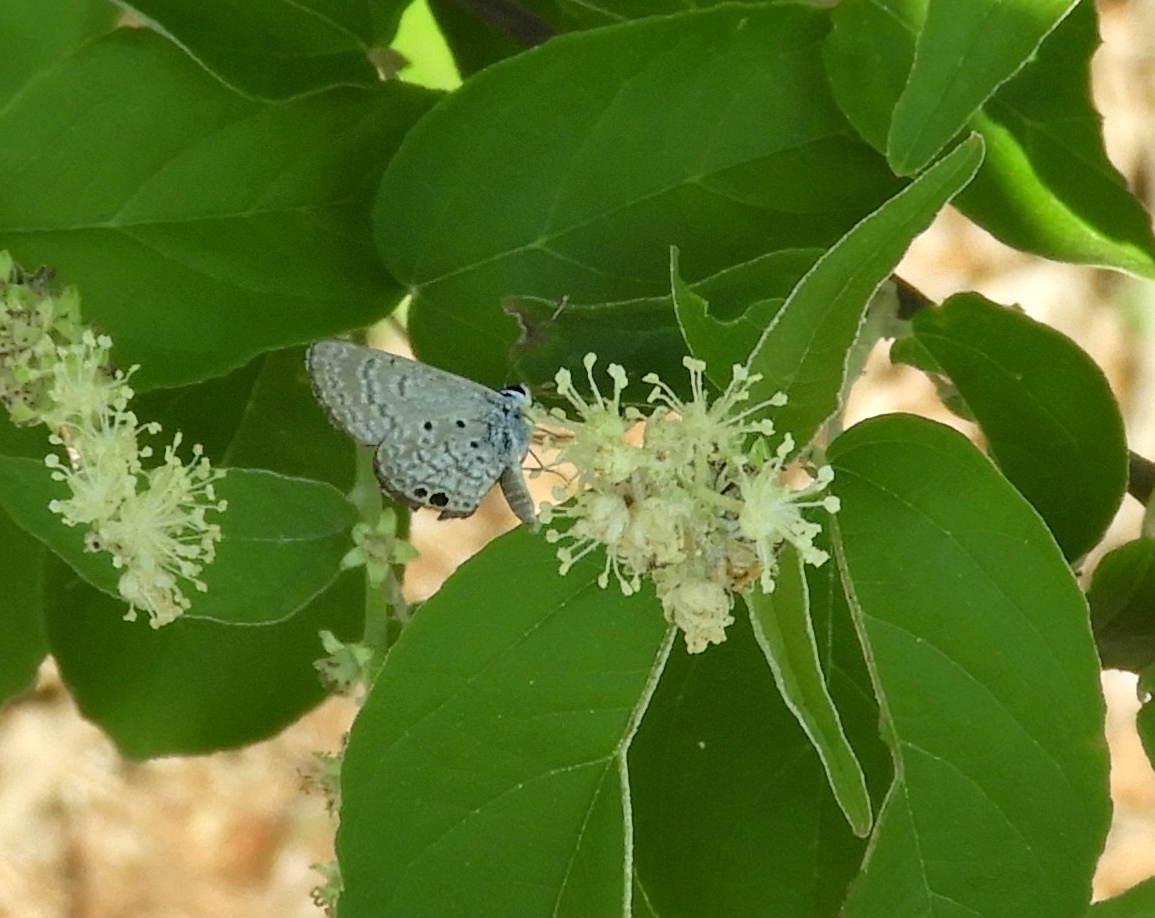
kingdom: Animalia
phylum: Arthropoda
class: Insecta
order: Lepidoptera
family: Lycaenidae
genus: Hemiargus
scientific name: Hemiargus ceraunus
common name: Ceraunus blue
